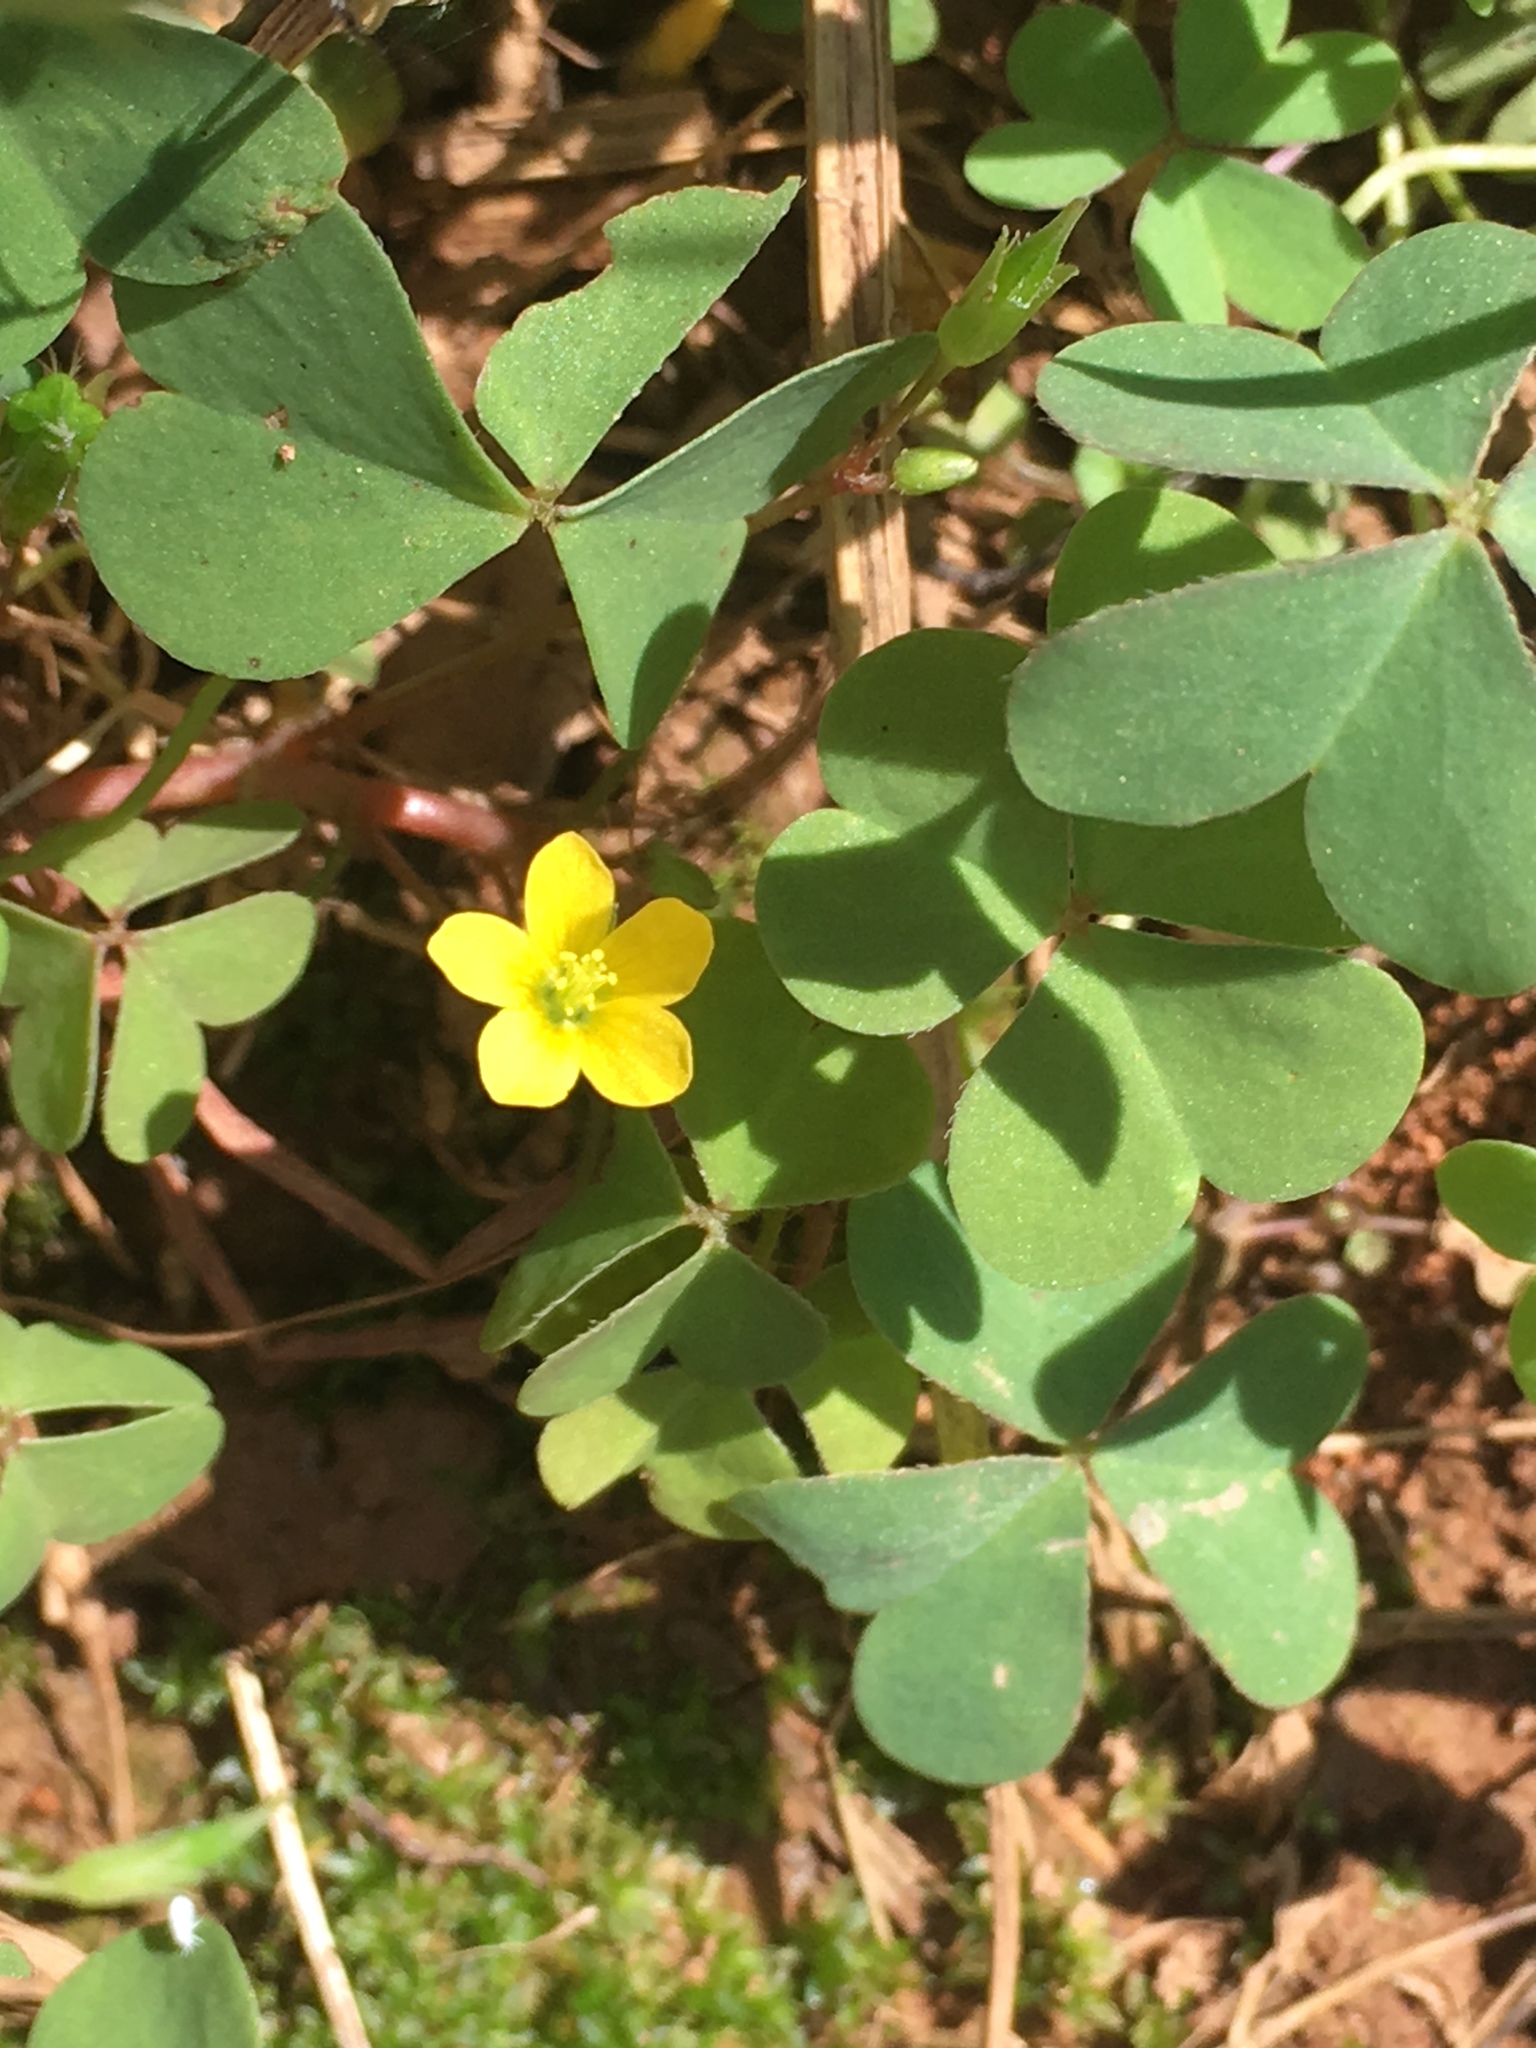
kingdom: Plantae
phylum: Tracheophyta
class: Magnoliopsida
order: Oxalidales
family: Oxalidaceae
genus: Oxalis
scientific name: Oxalis
